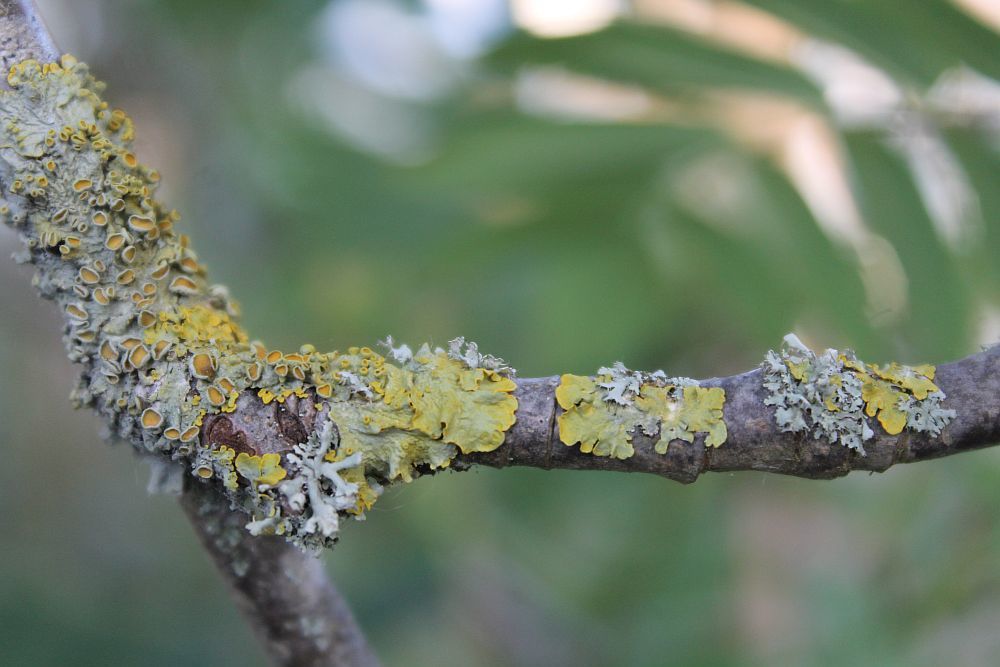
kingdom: Fungi
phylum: Ascomycota
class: Lecanoromycetes
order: Teloschistales
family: Teloschistaceae
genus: Xanthoria
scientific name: Xanthoria parietina
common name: Common orange lichen
